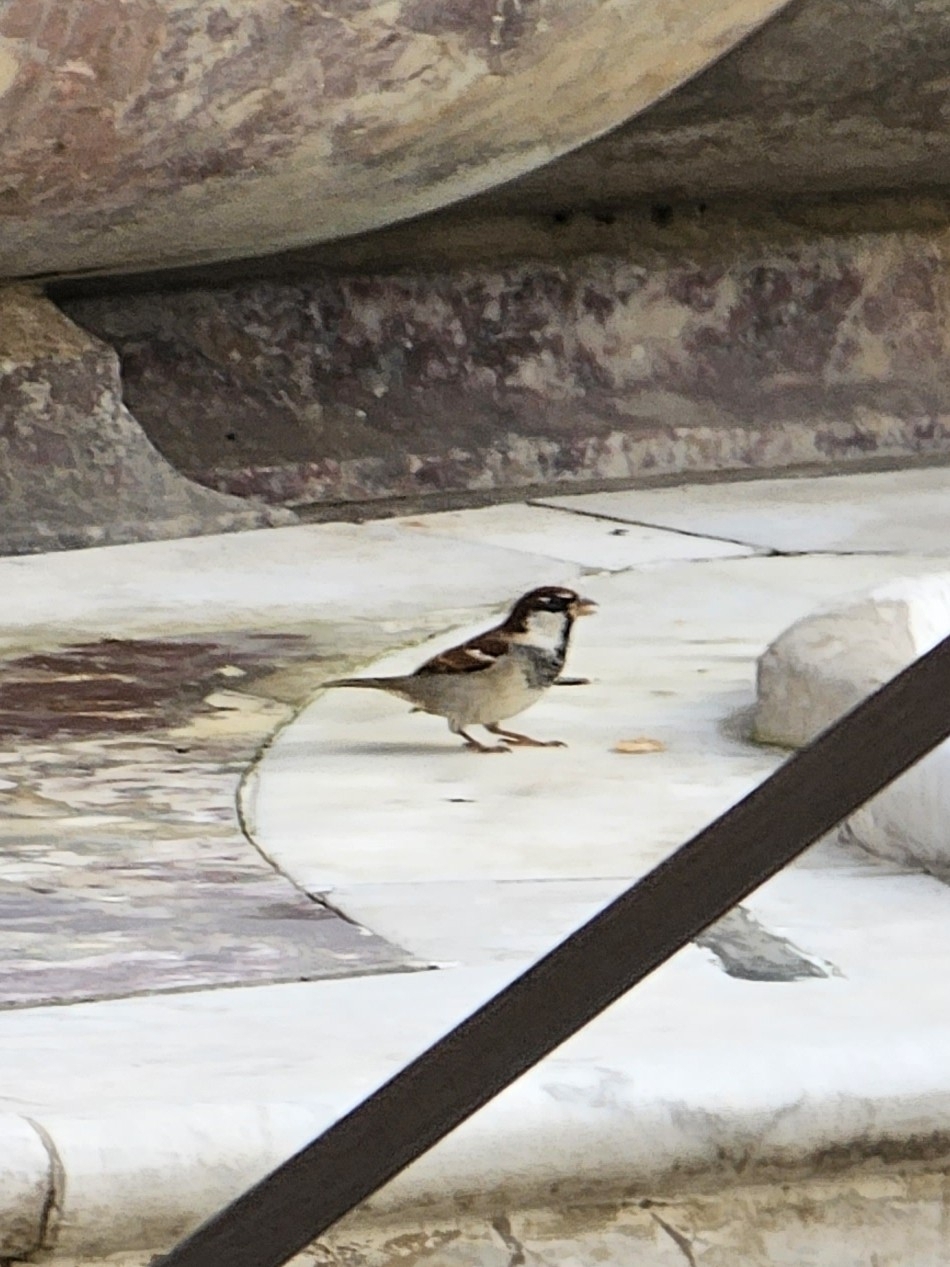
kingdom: Animalia
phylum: Chordata
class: Aves
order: Passeriformes
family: Passeridae
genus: Passer
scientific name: Passer italiae
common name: Italian sparrow
